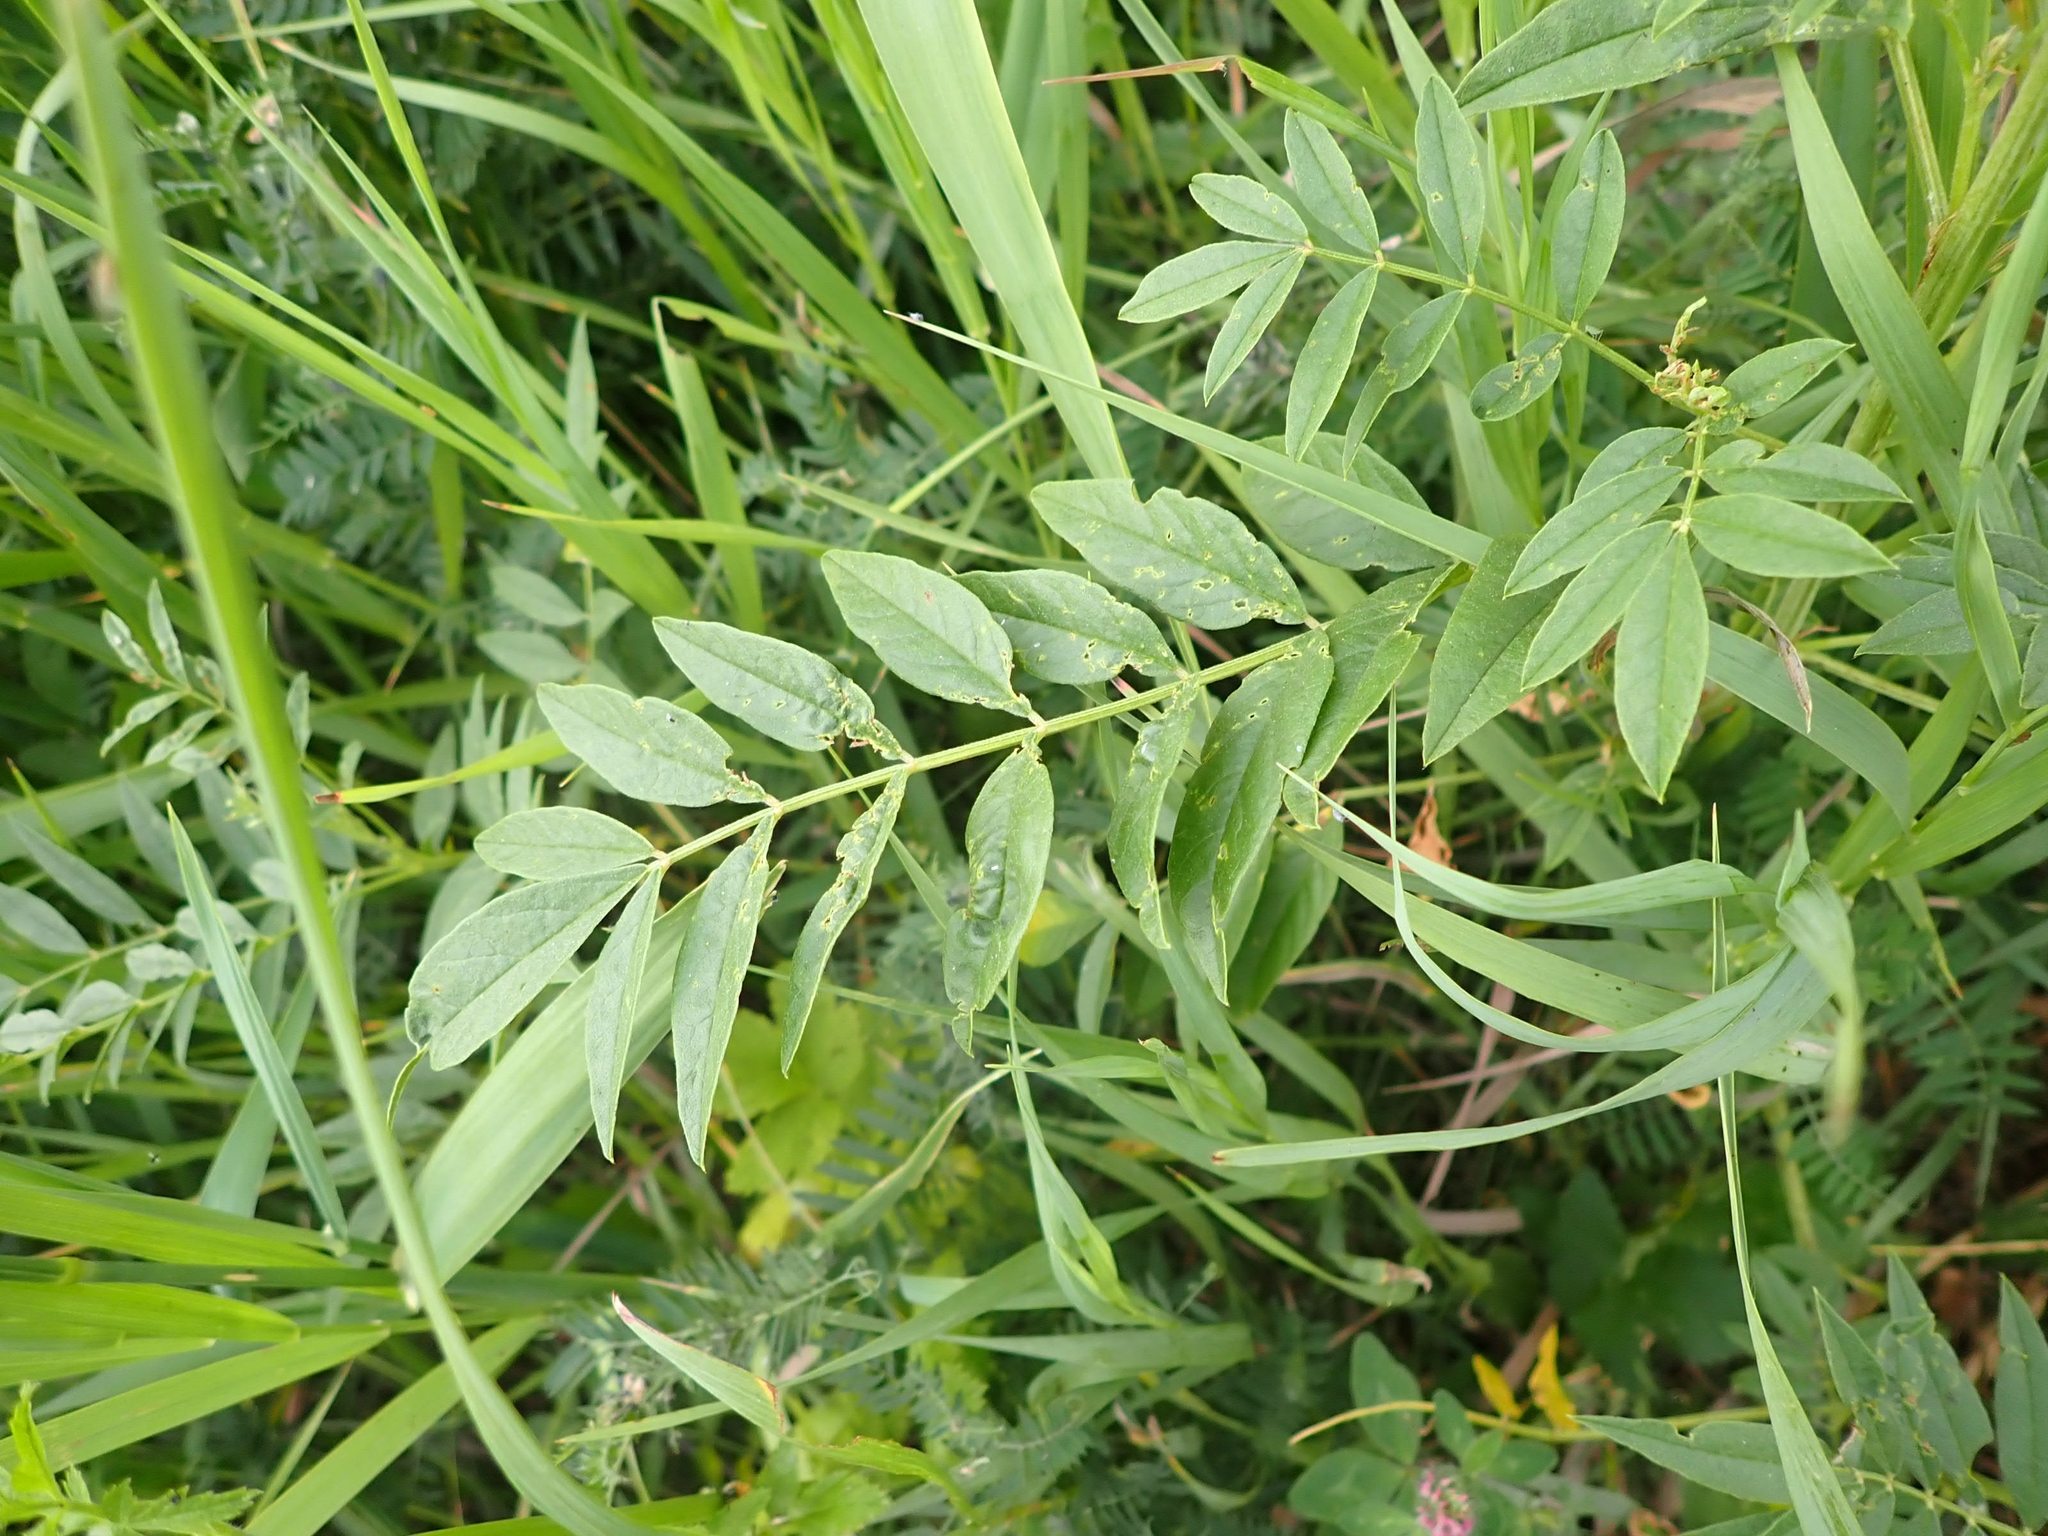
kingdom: Plantae
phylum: Tracheophyta
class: Magnoliopsida
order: Fabales
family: Fabaceae
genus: Glycyrrhiza
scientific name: Glycyrrhiza lepidota
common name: American liquorice
